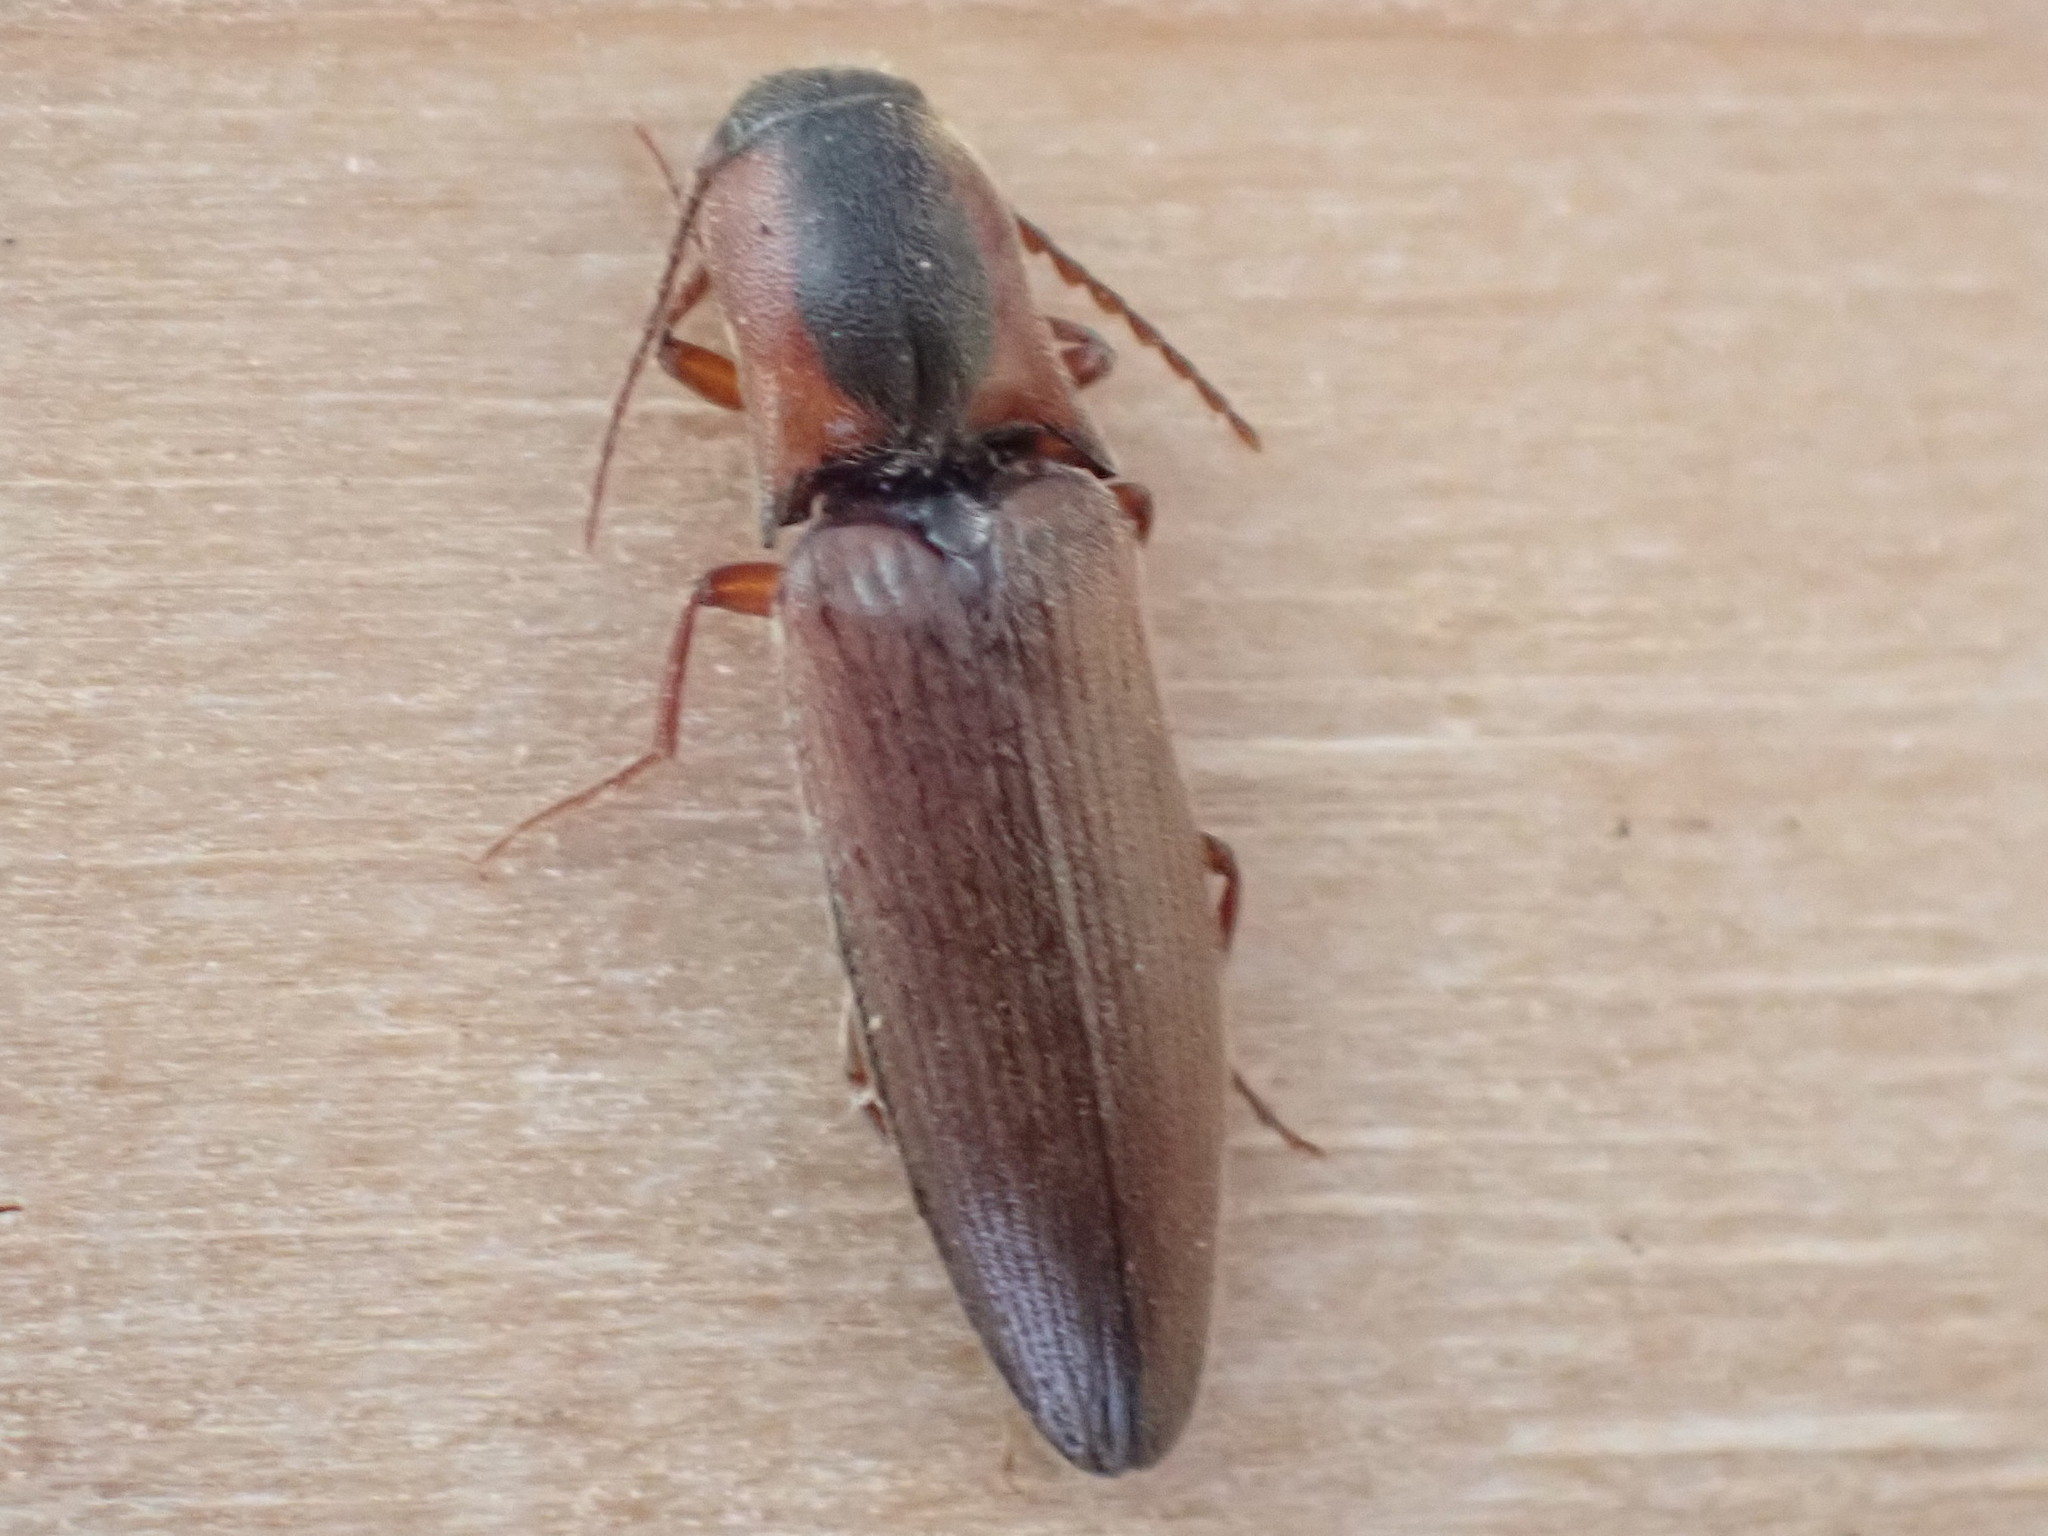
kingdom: Animalia
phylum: Arthropoda
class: Insecta
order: Coleoptera
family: Elateridae
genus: Agriotes
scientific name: Agriotes collaris
